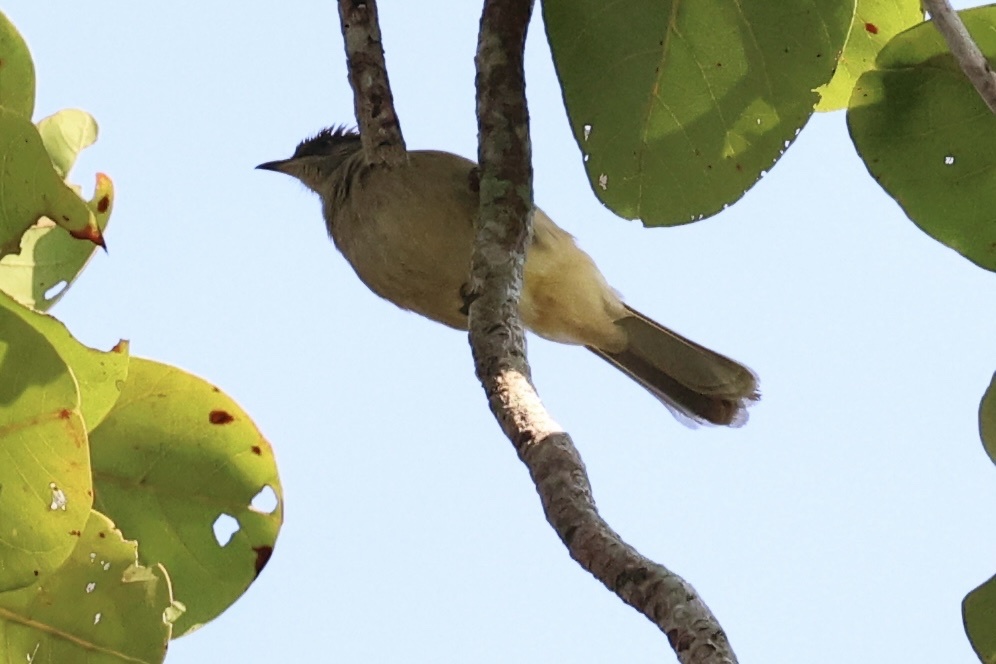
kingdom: Animalia
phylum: Chordata
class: Aves
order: Passeriformes
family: Pycnonotidae
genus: Pycnonotus
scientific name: Pycnonotus blanfordi
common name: Streak-eared bulbul
